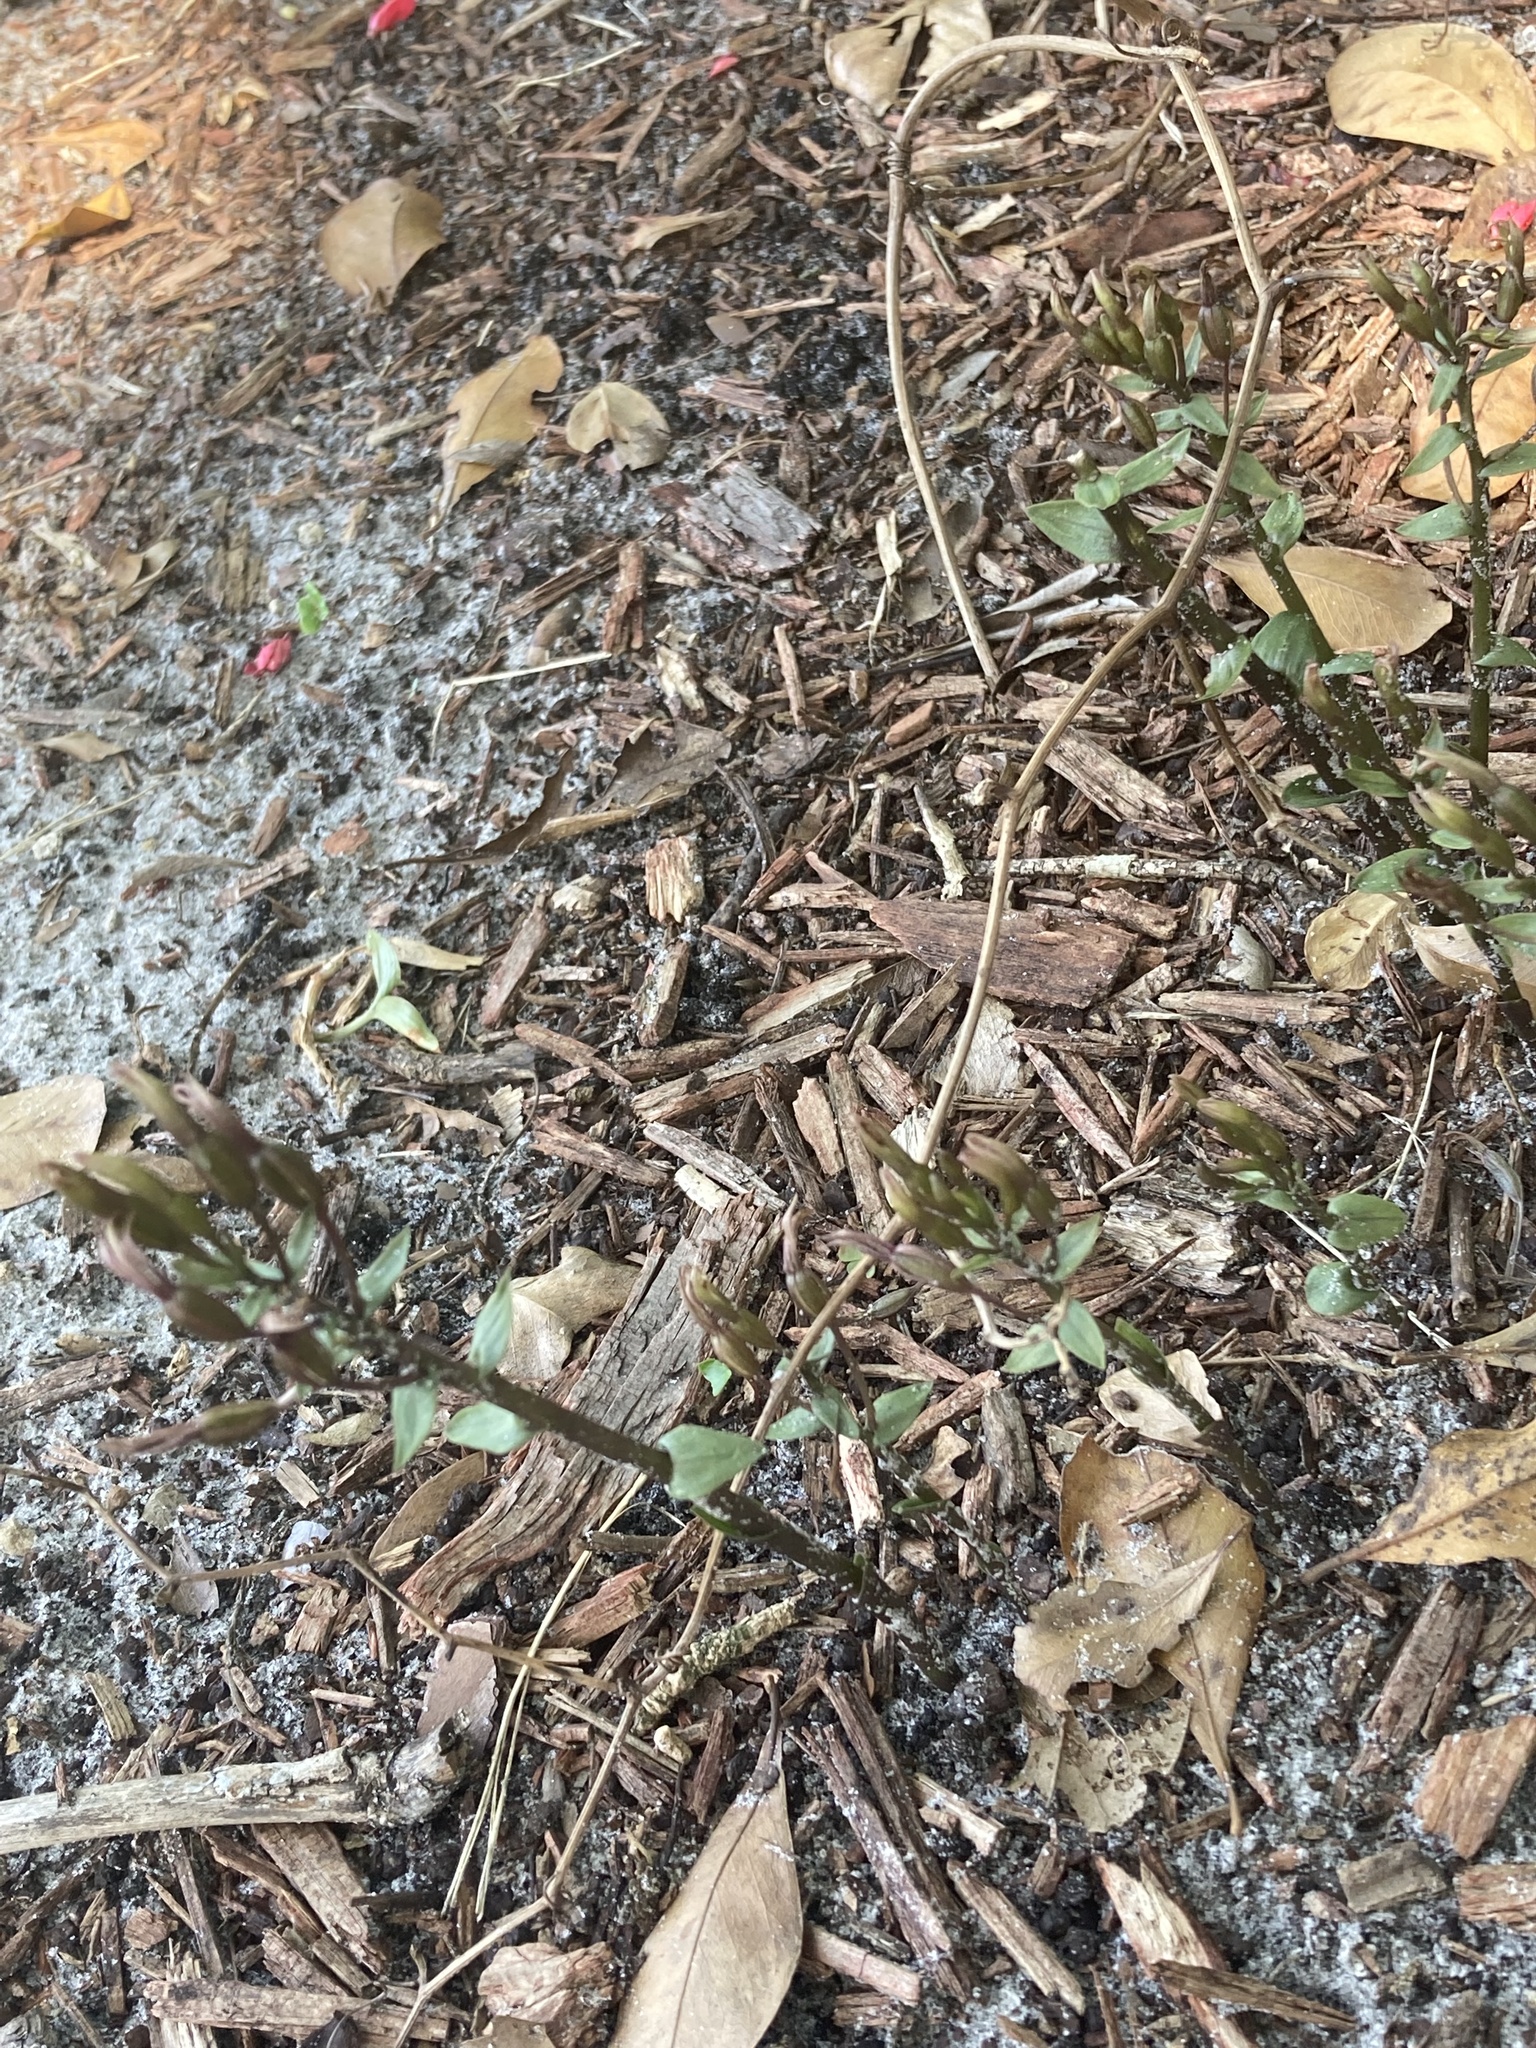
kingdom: Plantae
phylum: Tracheophyta
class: Liliopsida
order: Asparagales
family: Orchidaceae
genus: Triphora
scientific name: Triphora gentianoides
